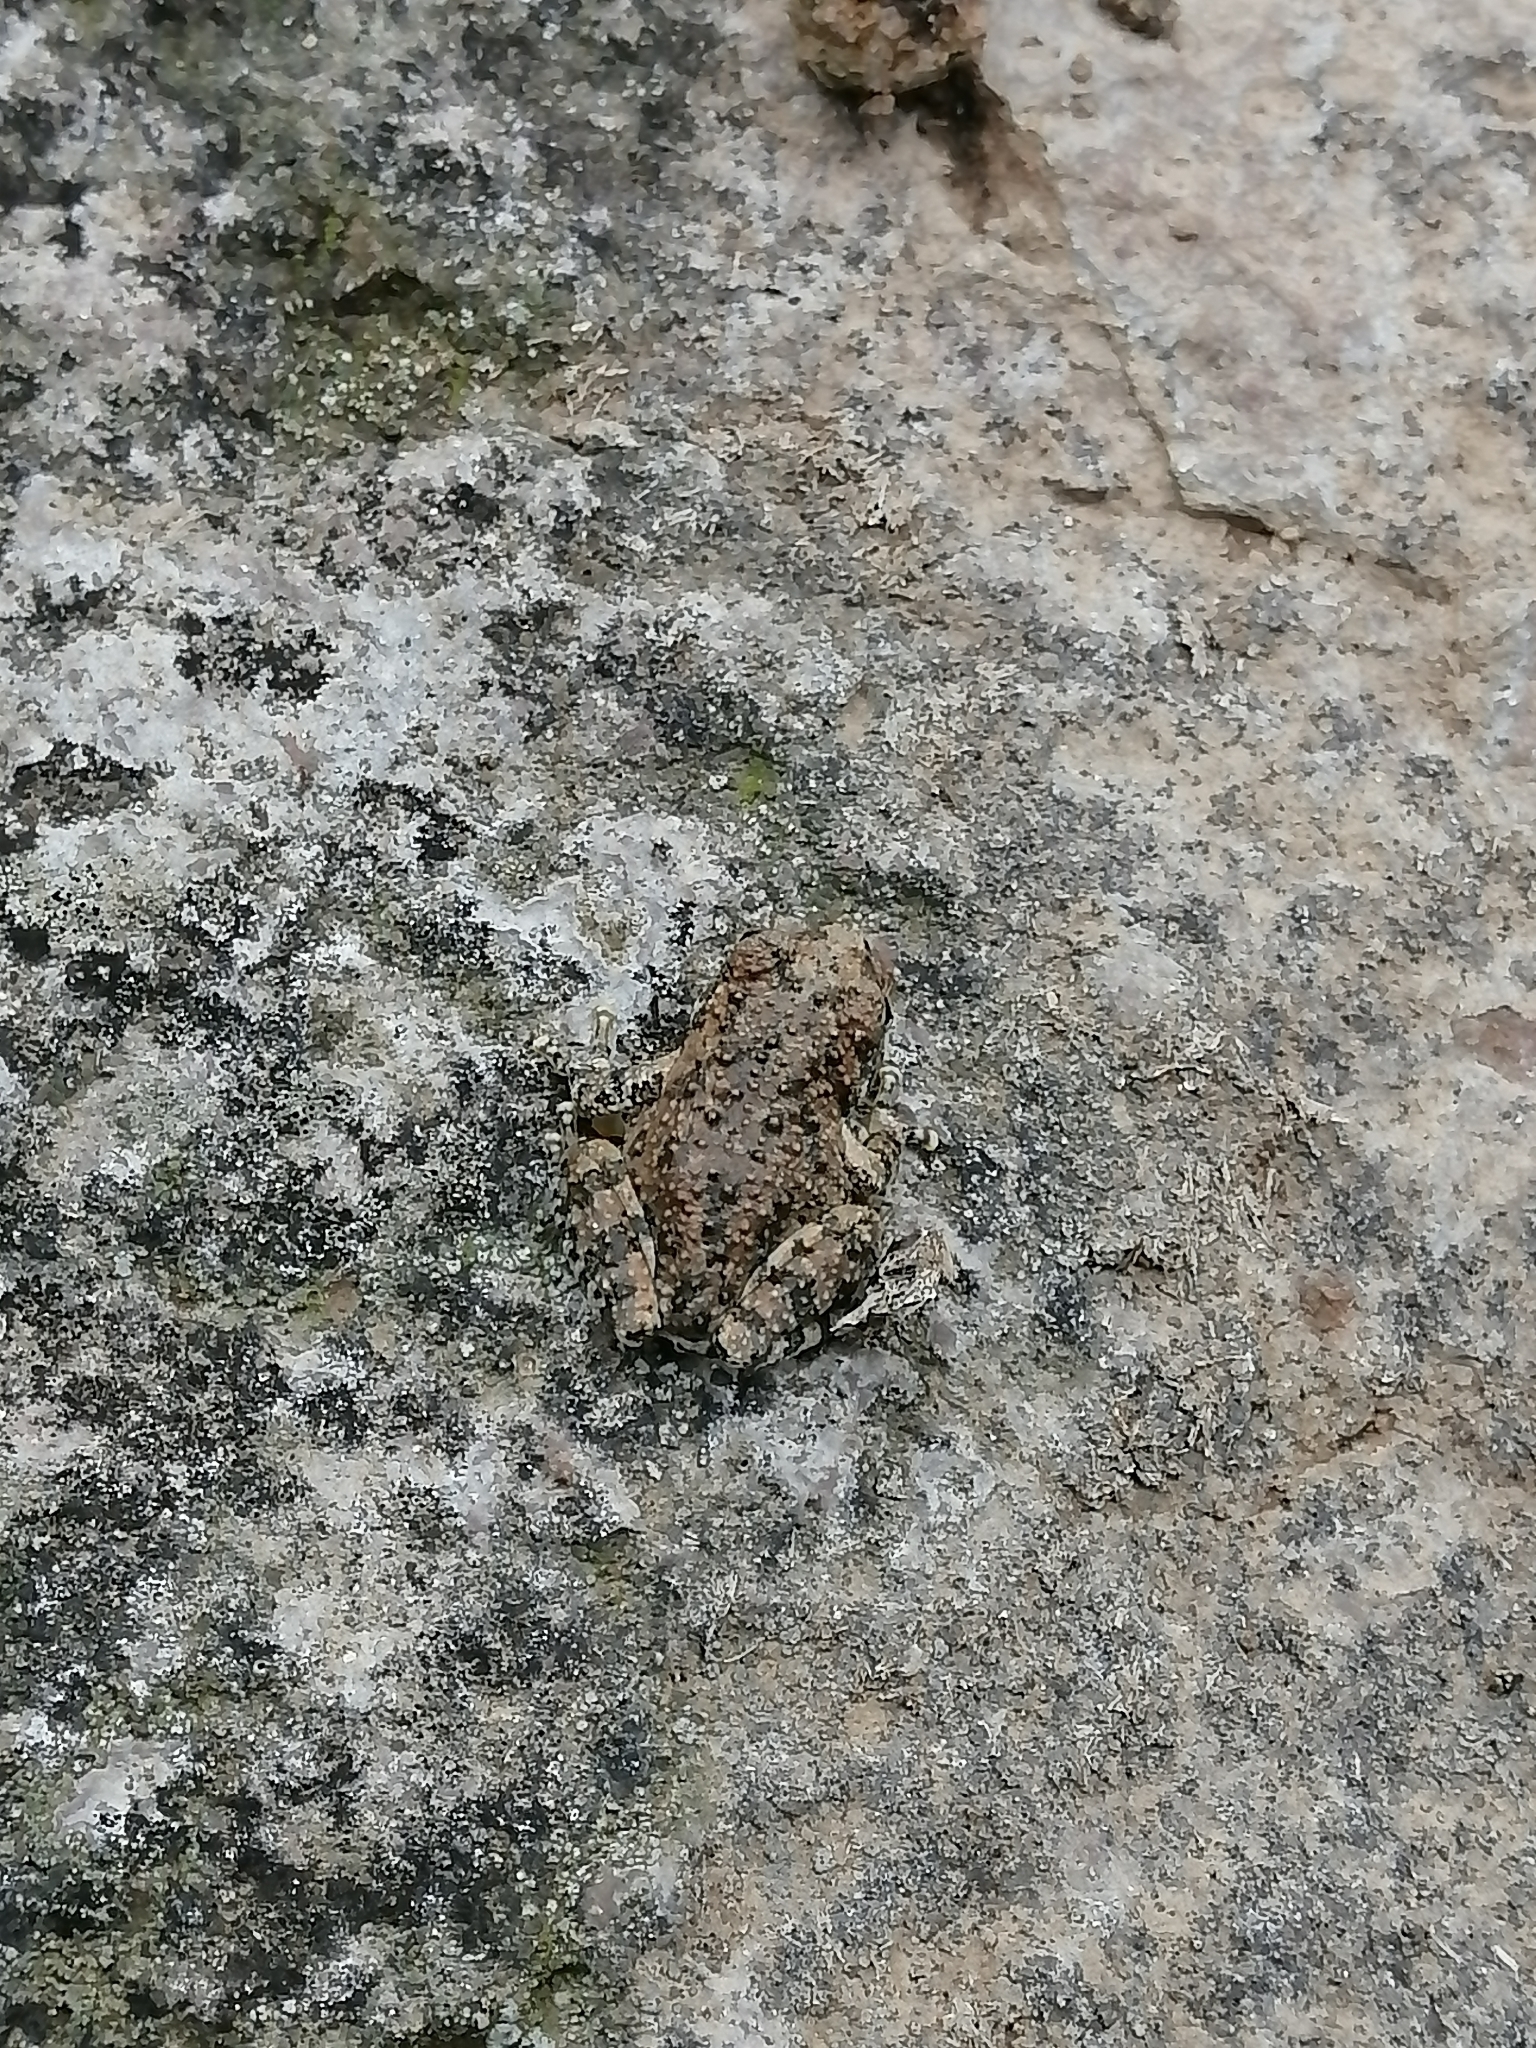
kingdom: Animalia
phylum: Chordata
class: Amphibia
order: Anura
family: Hylidae
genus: Dryophytes
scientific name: Dryophytes arenicolor
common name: Canyon treefrog
